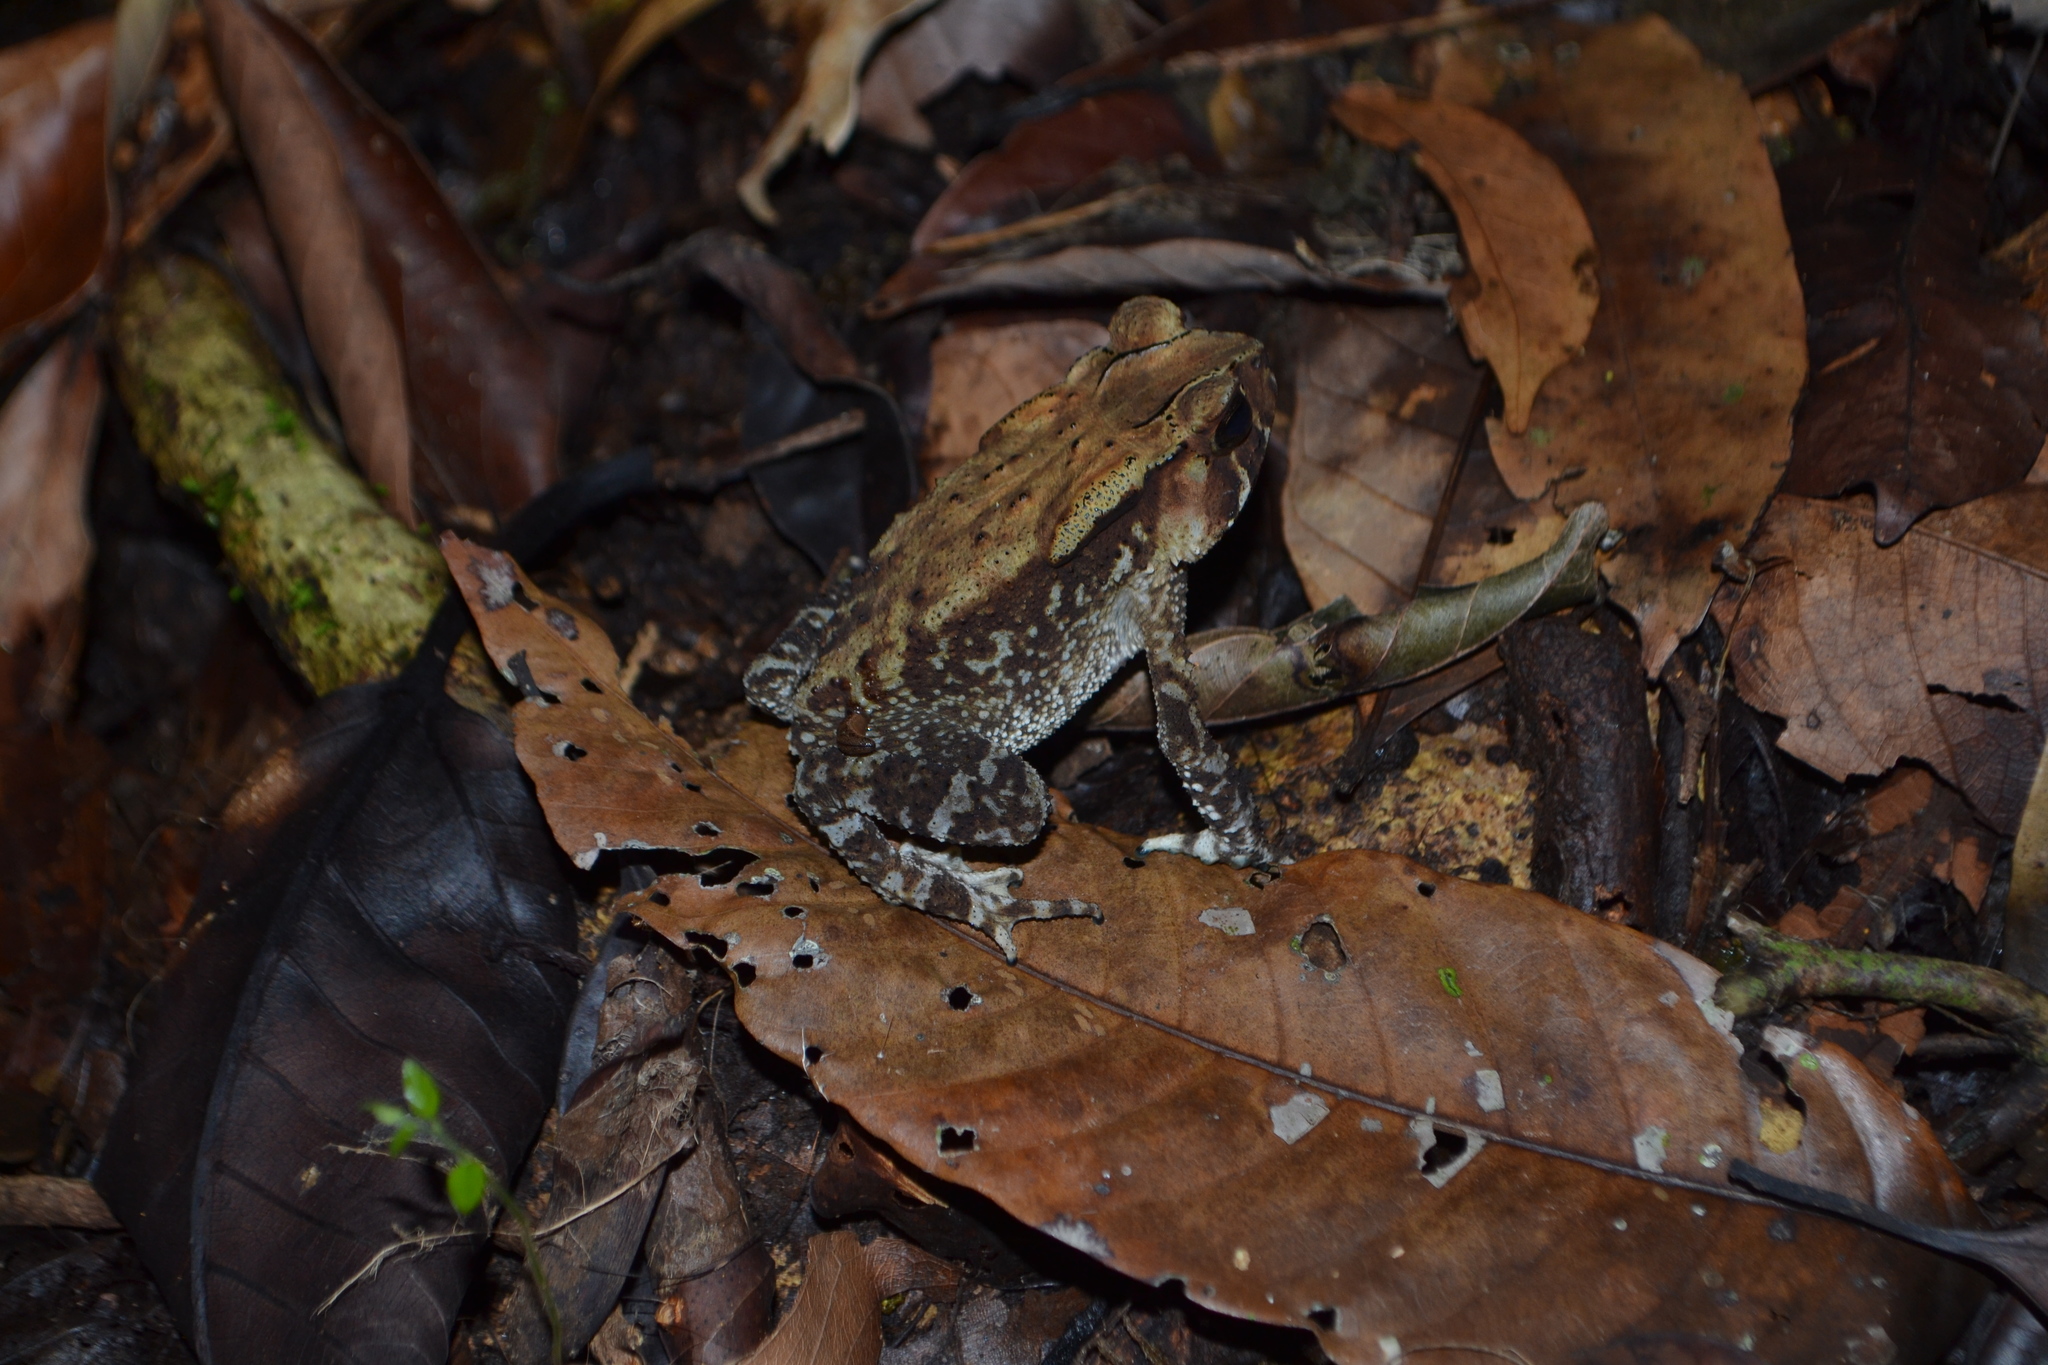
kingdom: Animalia
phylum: Chordata
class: Amphibia
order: Anura
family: Bufonidae
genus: Duttaphrynus
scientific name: Duttaphrynus parietalis
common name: Indian toad
